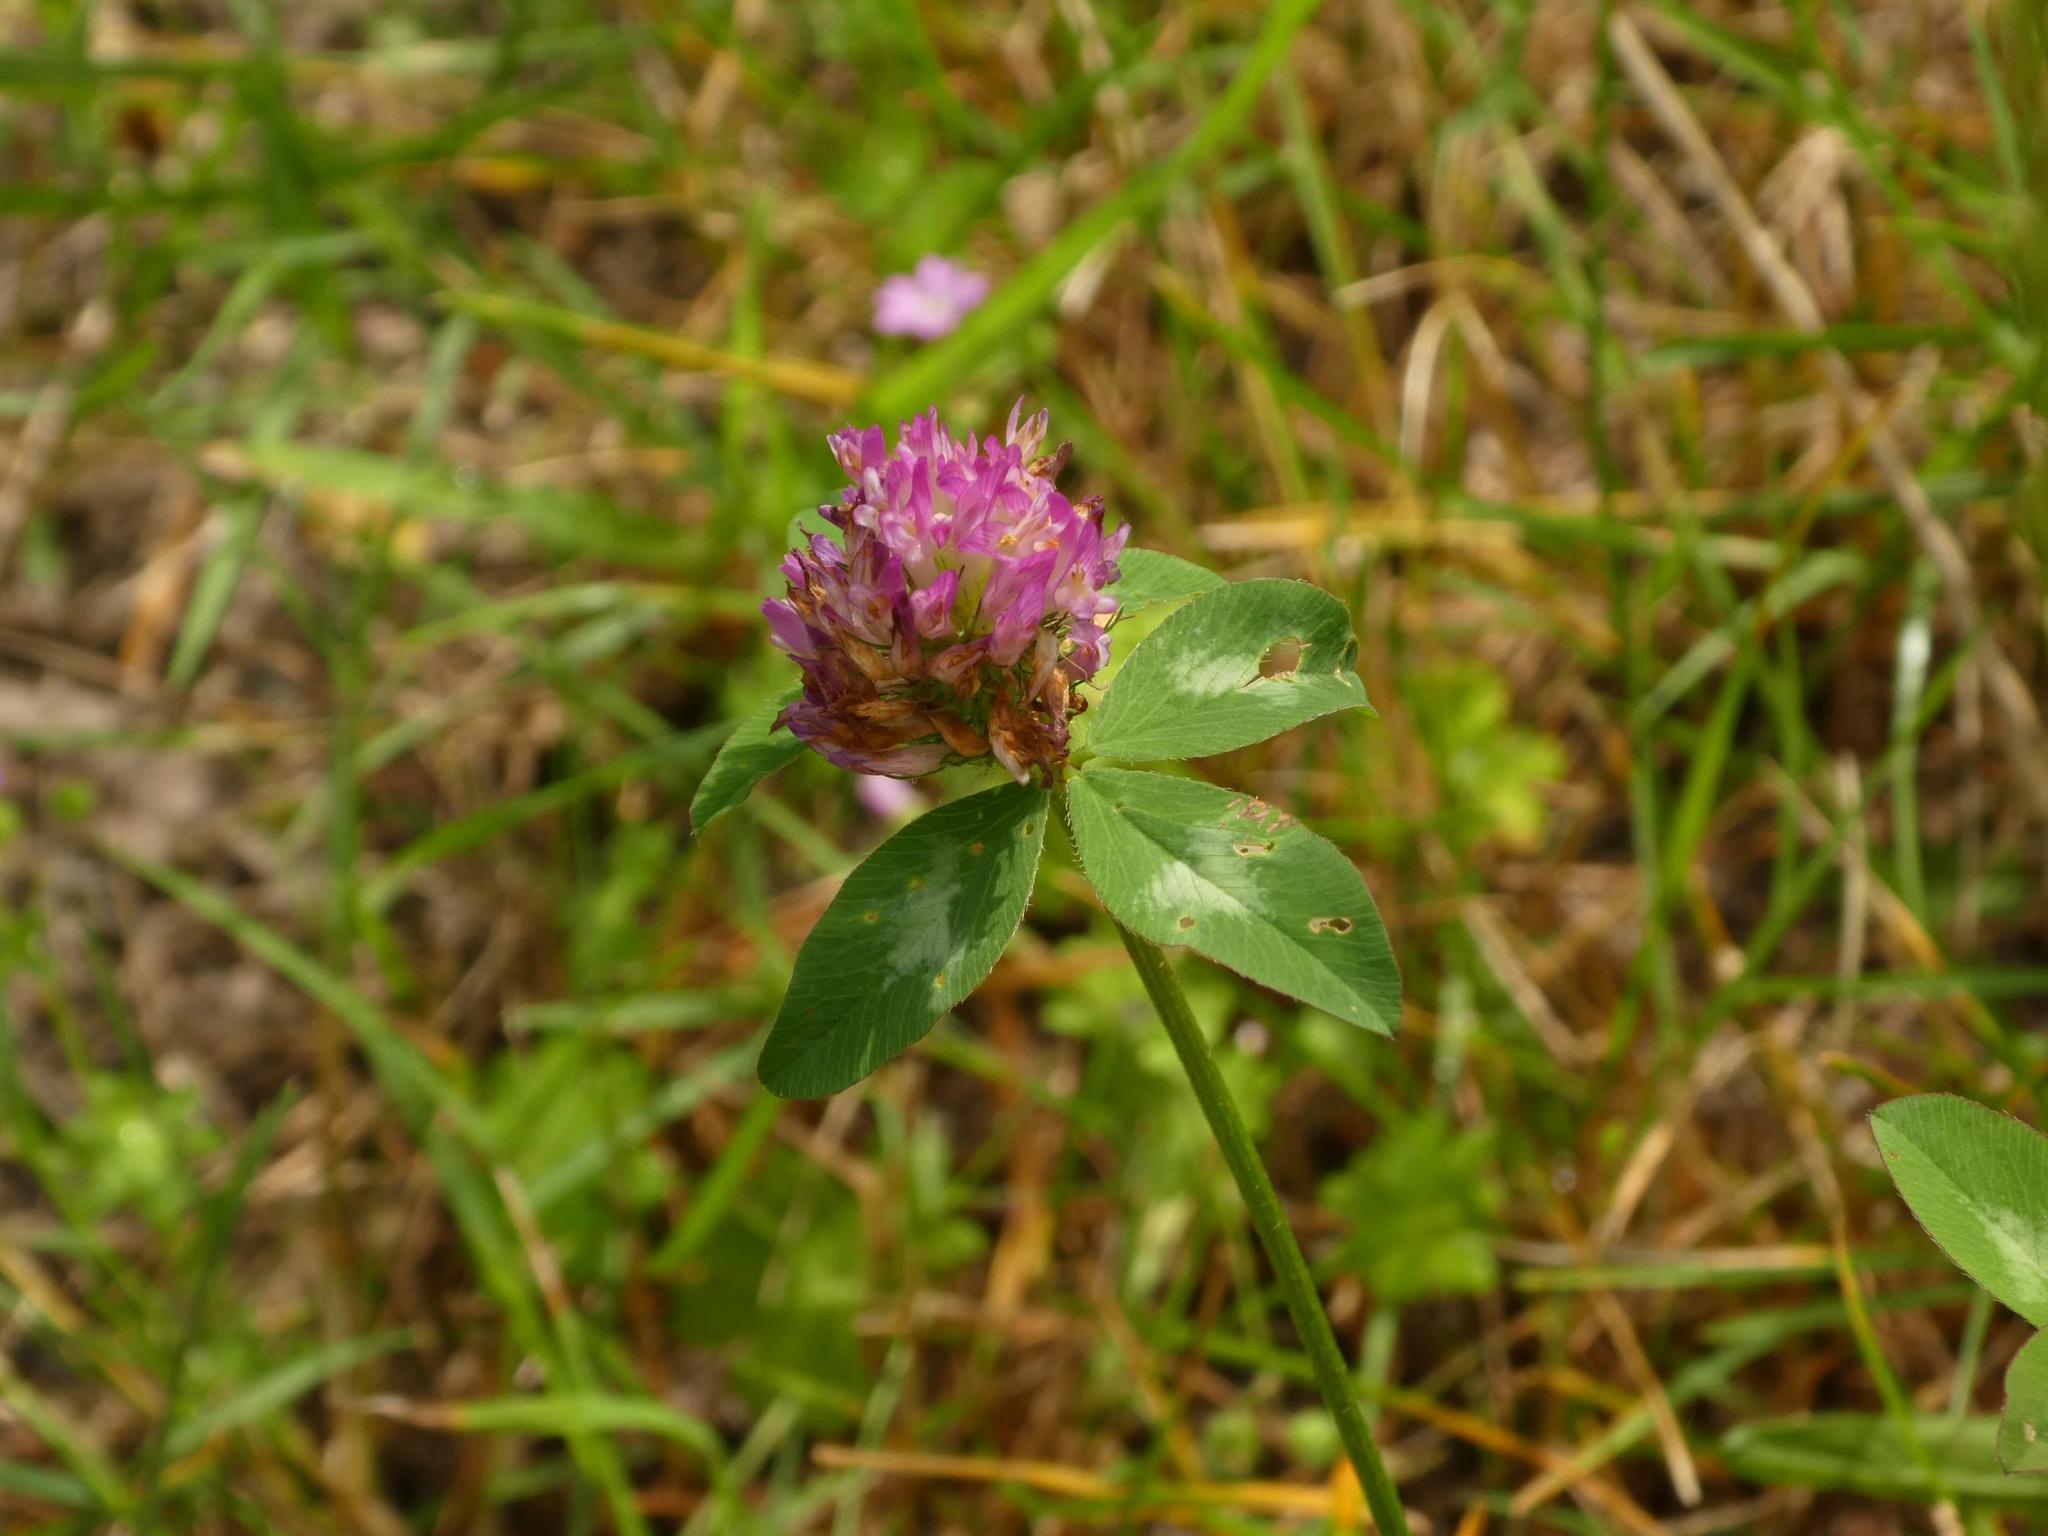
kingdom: Plantae
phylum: Tracheophyta
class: Magnoliopsida
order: Fabales
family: Fabaceae
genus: Trifolium
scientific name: Trifolium pratense
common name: Red clover
